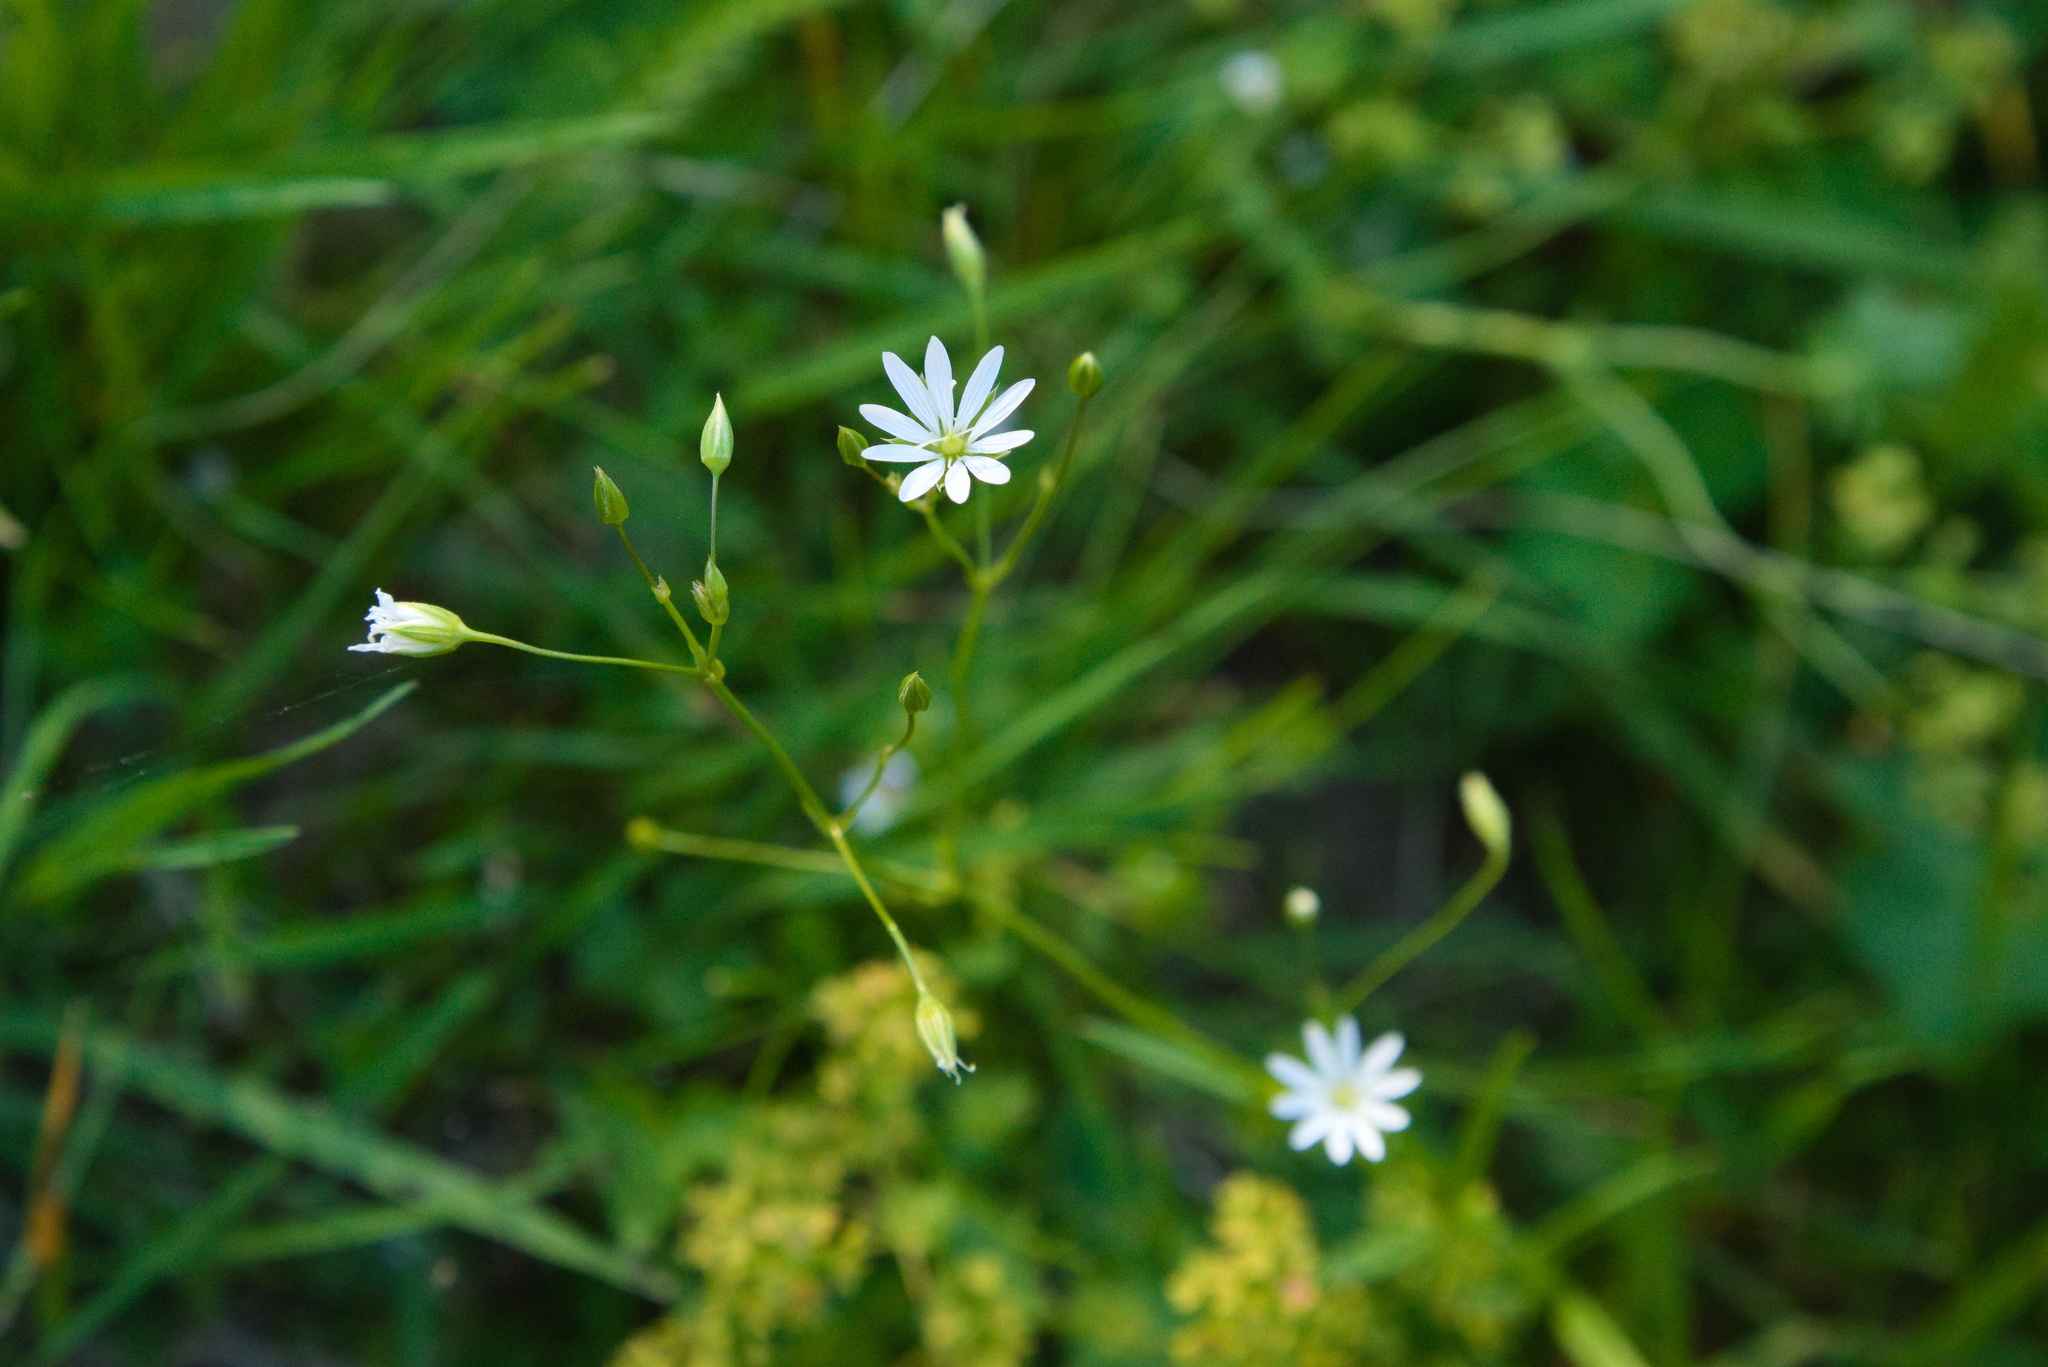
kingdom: Plantae
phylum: Tracheophyta
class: Magnoliopsida
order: Caryophyllales
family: Caryophyllaceae
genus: Stellaria
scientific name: Stellaria graminea
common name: Grass-like starwort
